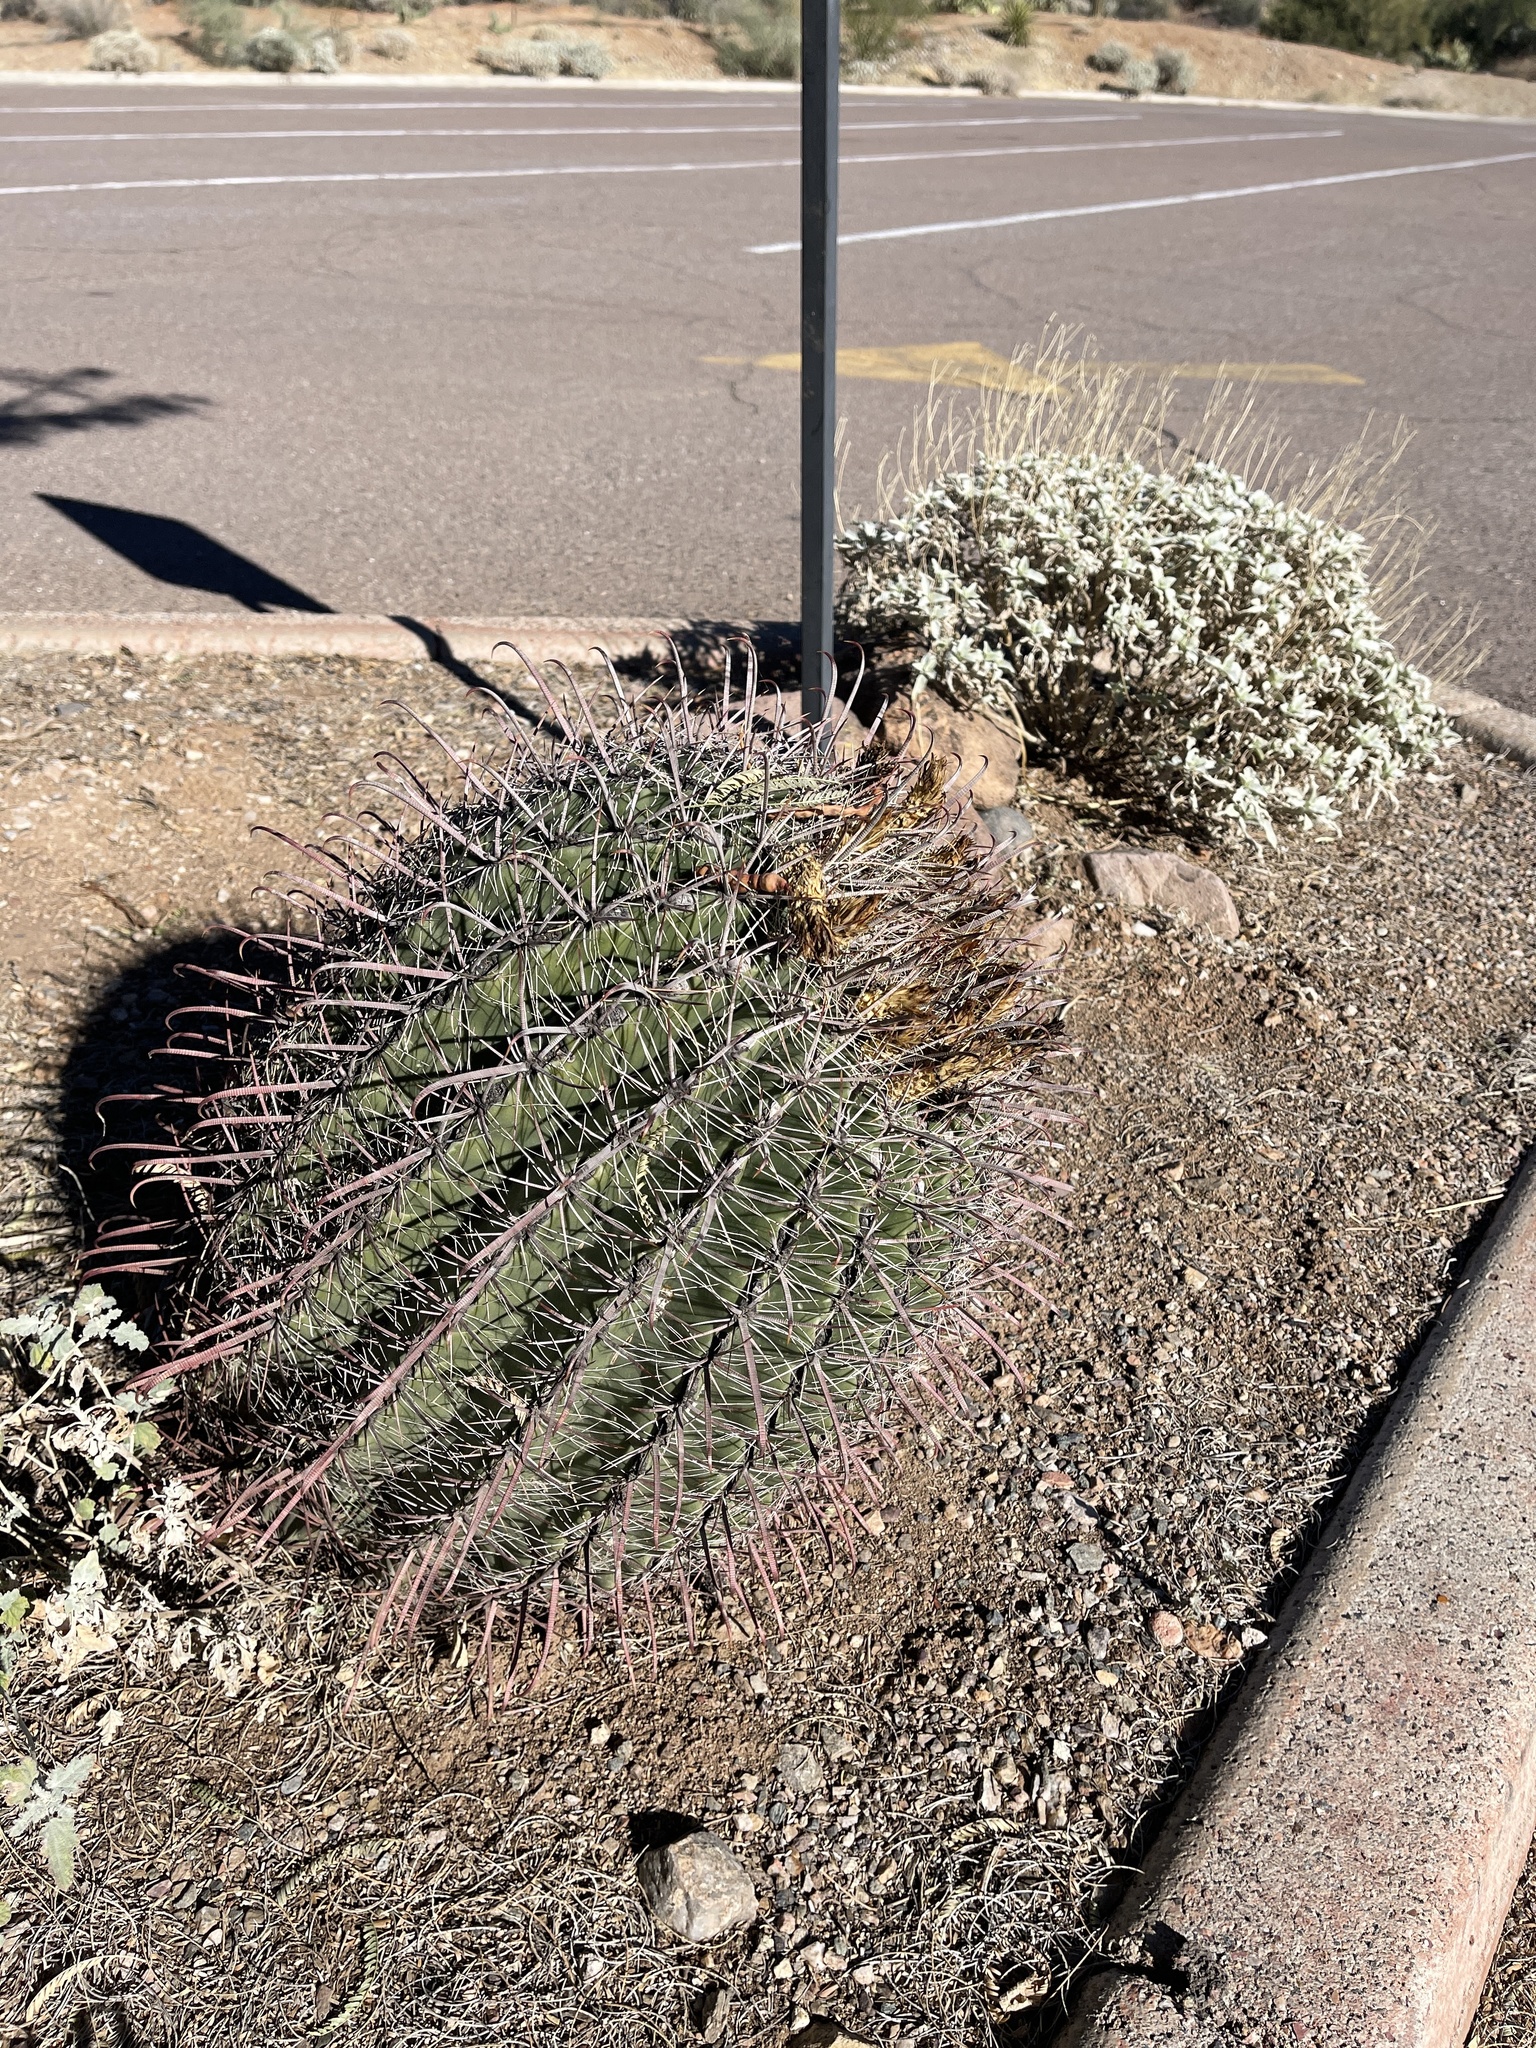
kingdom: Plantae
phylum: Tracheophyta
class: Magnoliopsida
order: Caryophyllales
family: Cactaceae
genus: Ferocactus
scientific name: Ferocactus wislizeni
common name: Candy barrel cactus
